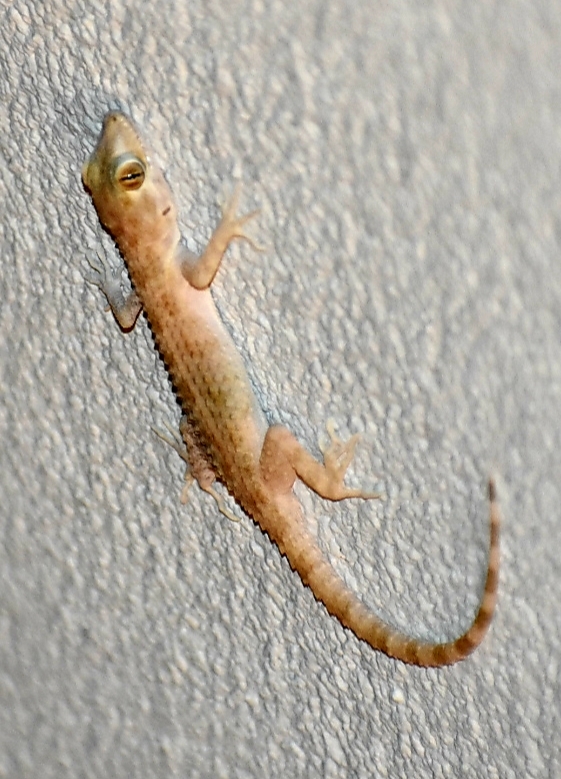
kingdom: Animalia
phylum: Chordata
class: Squamata
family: Gekkonidae
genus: Cyrtopodion
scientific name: Cyrtopodion scabrum
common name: Rough-tailed gecko
